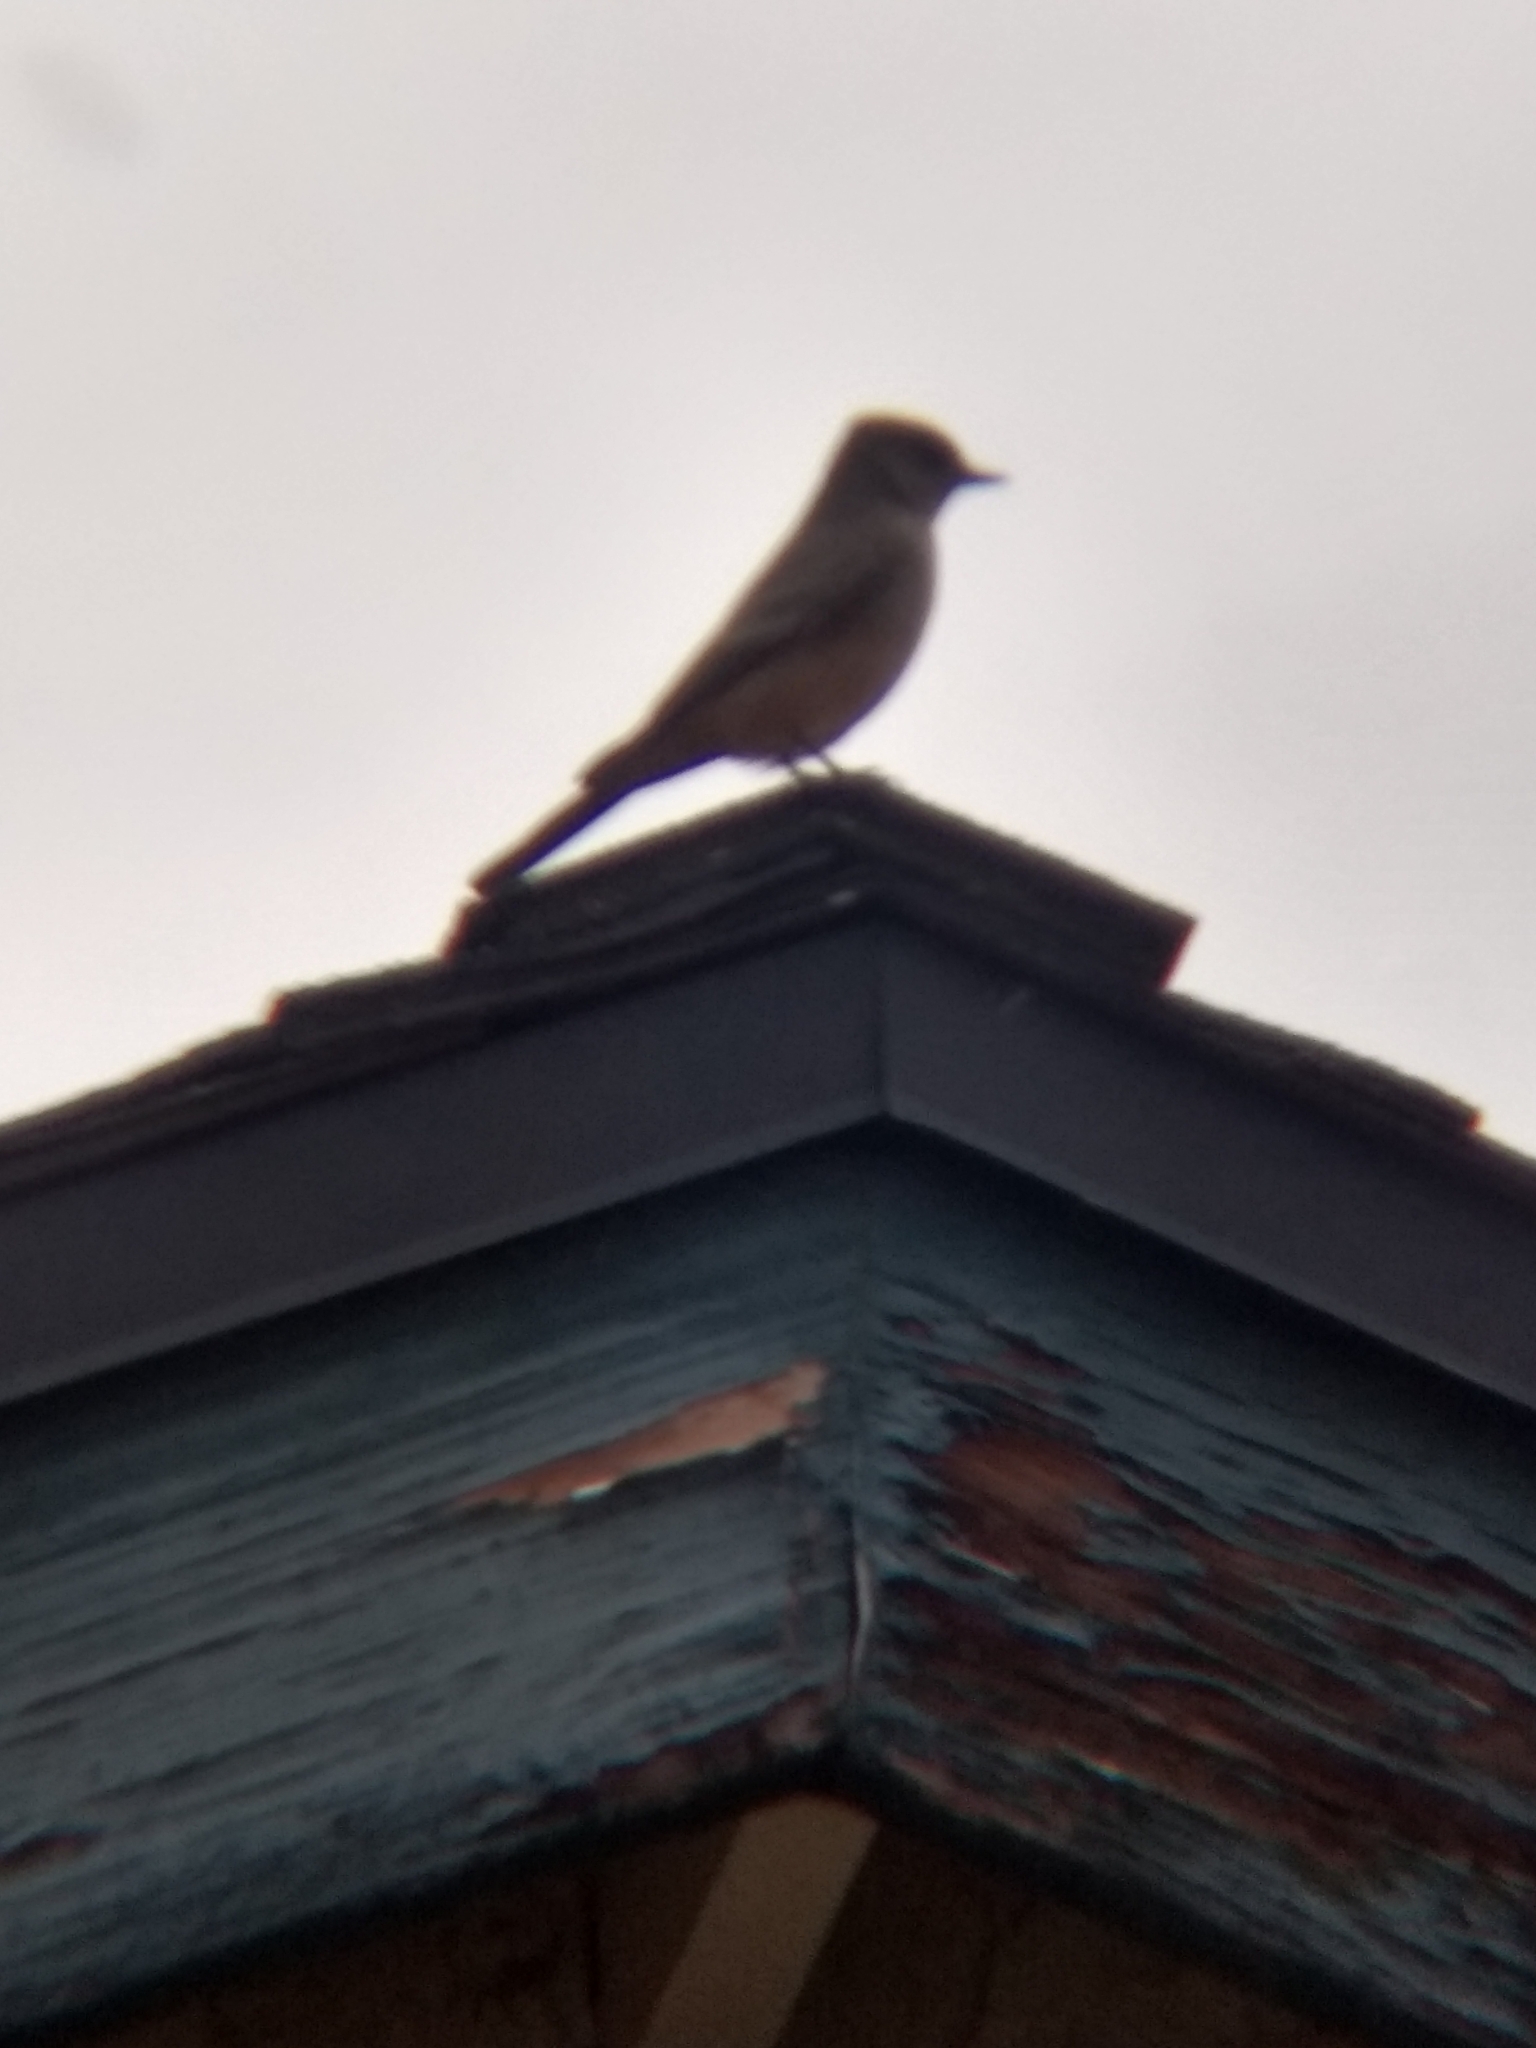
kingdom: Animalia
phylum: Chordata
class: Aves
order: Passeriformes
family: Tyrannidae
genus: Sayornis
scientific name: Sayornis saya
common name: Say's phoebe
